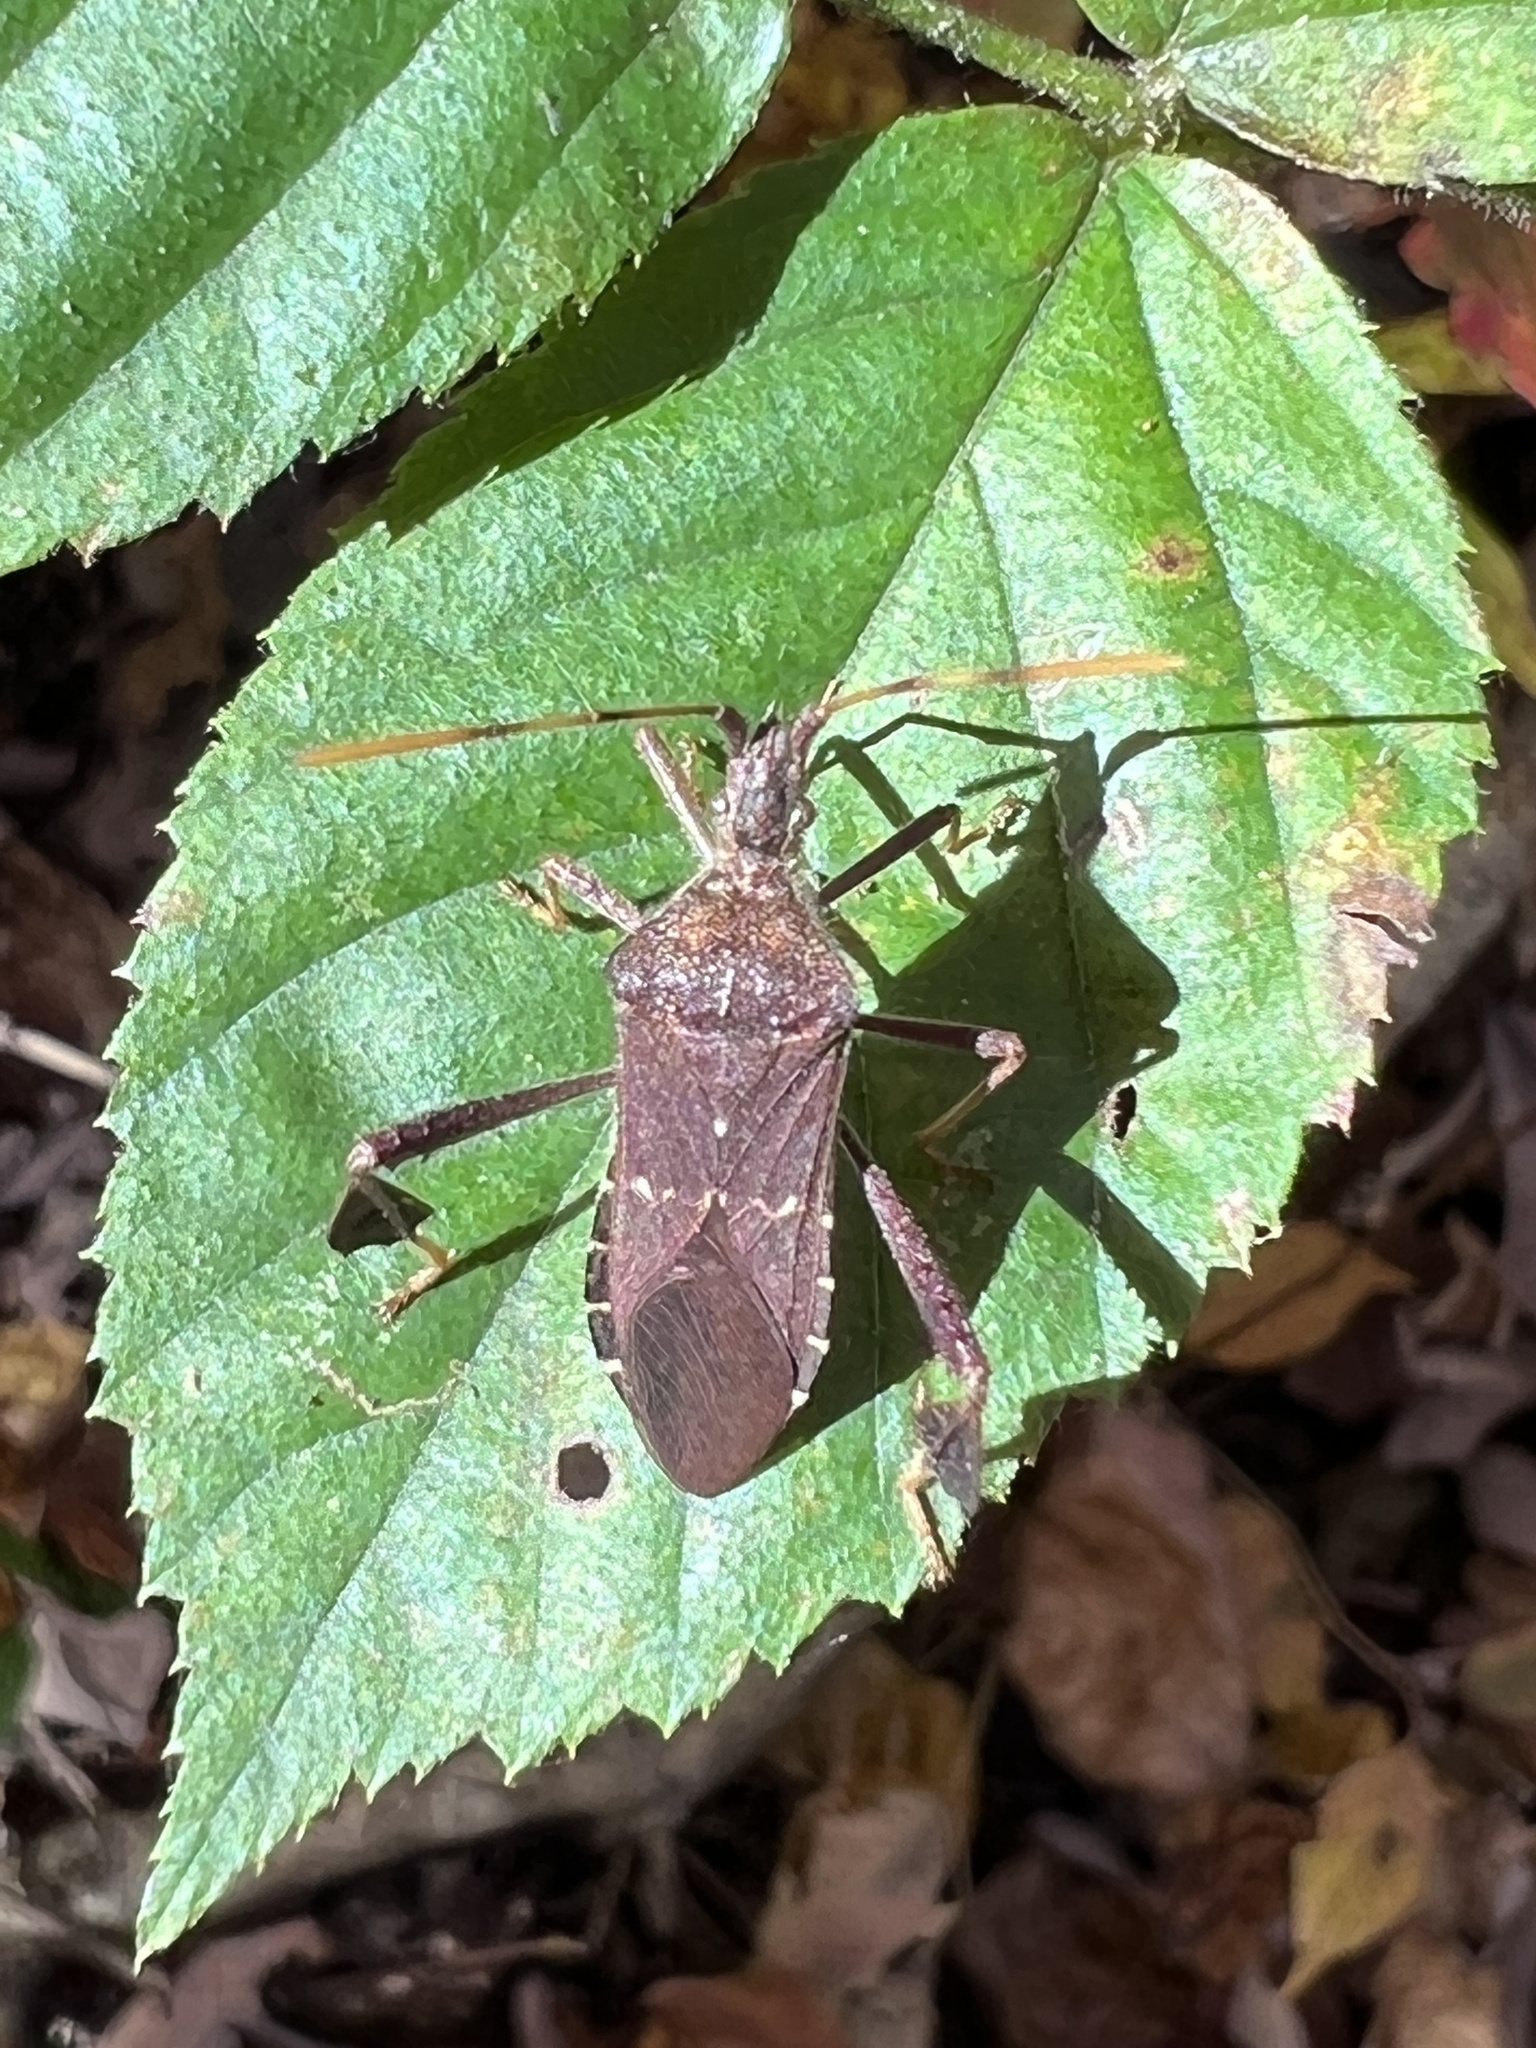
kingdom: Animalia
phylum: Arthropoda
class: Insecta
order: Hemiptera
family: Coreidae
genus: Leptoglossus
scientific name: Leptoglossus oppositus
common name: Northern leaf-footed bug
